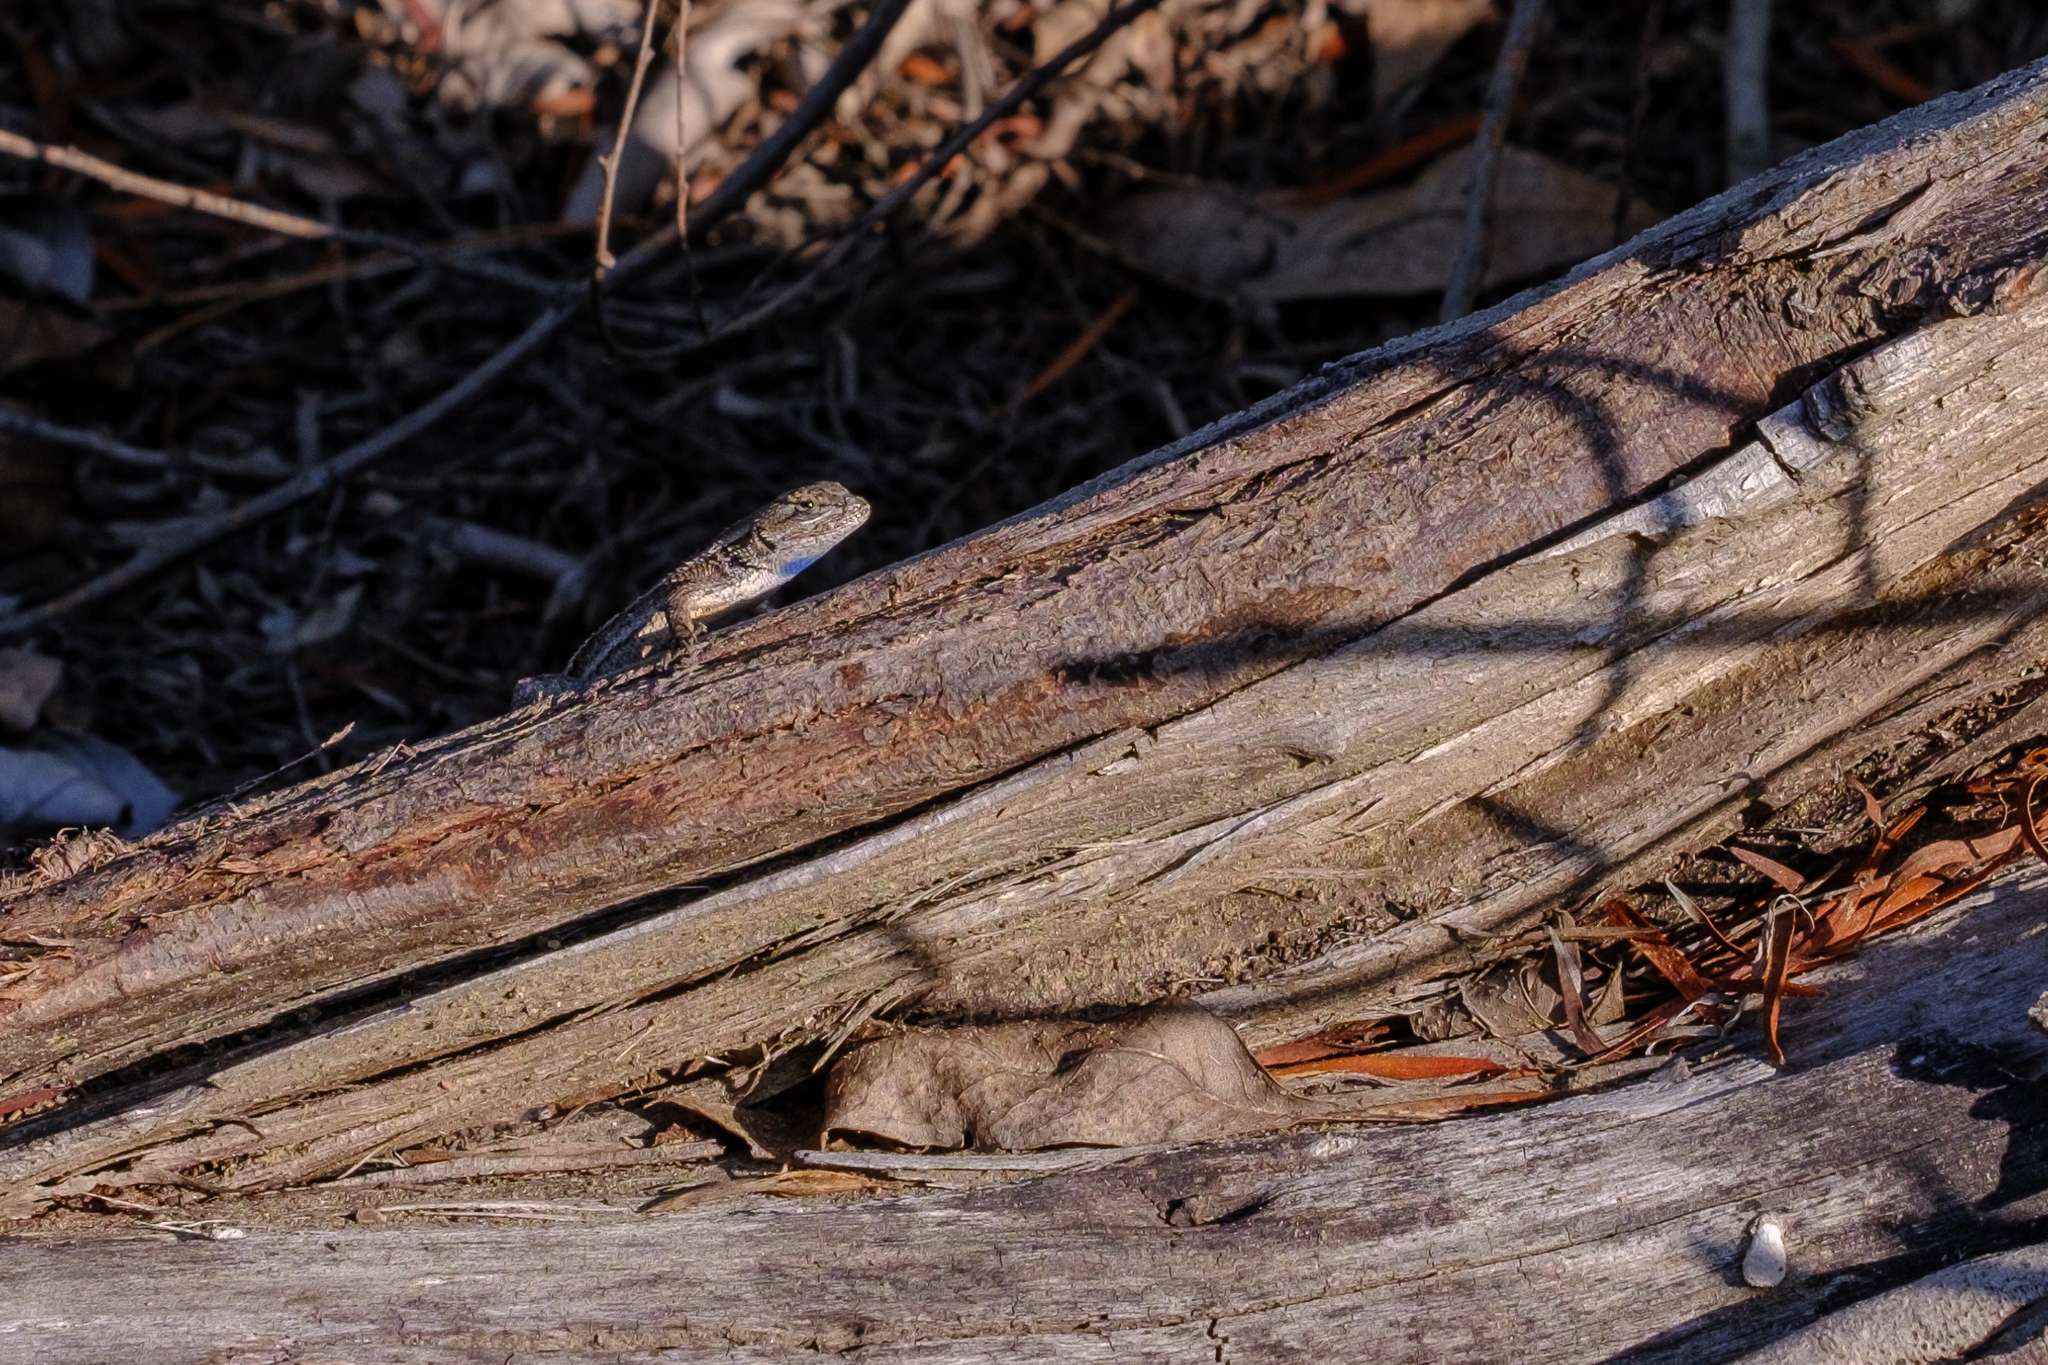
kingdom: Animalia
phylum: Chordata
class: Squamata
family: Phrynosomatidae
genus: Sceloporus
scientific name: Sceloporus occidentalis
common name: Western fence lizard
